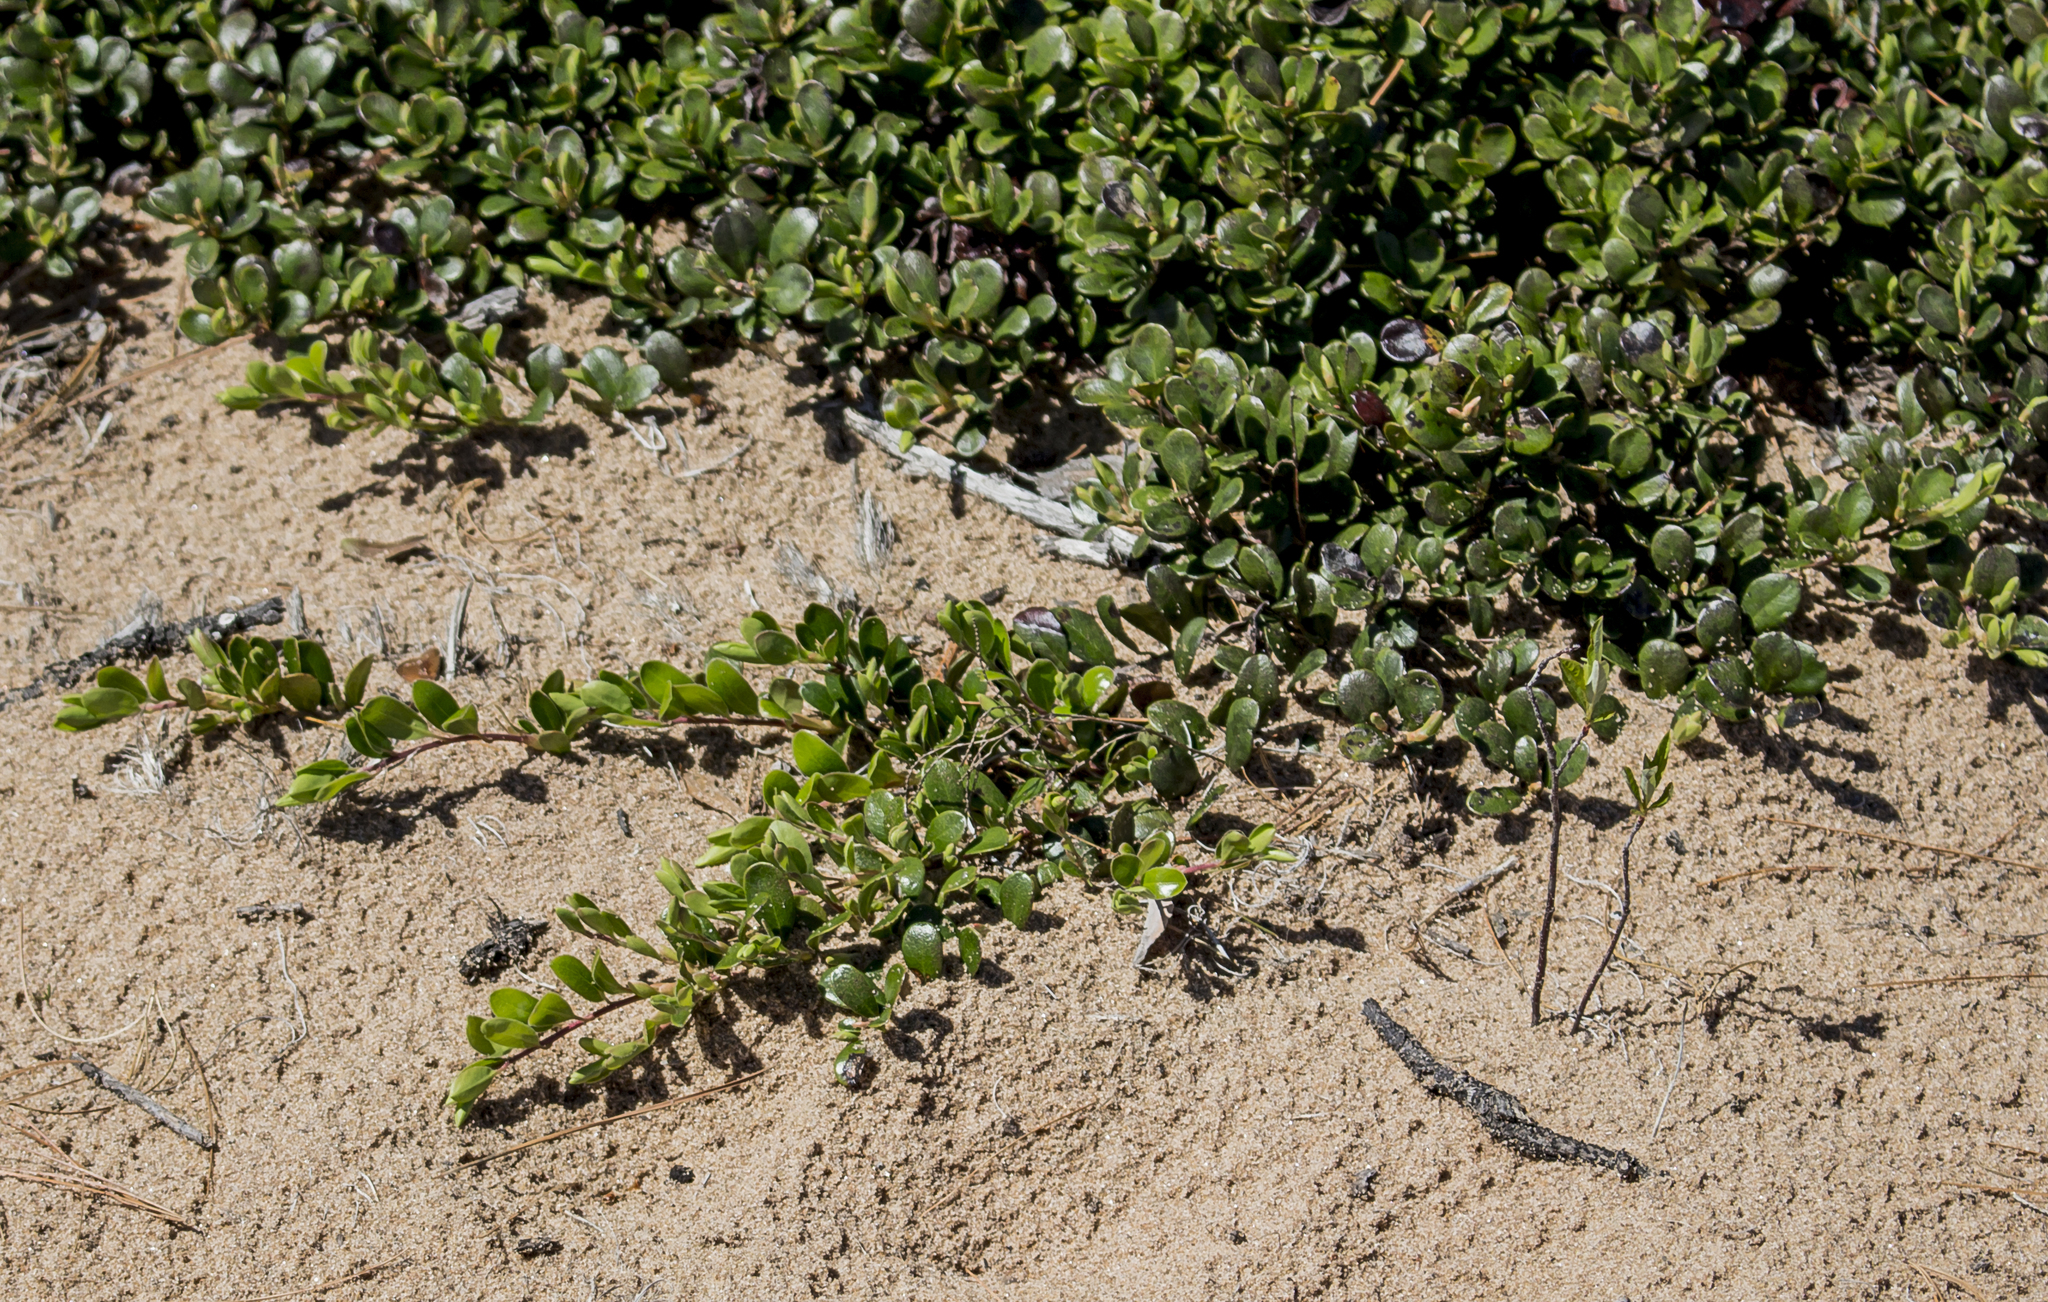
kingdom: Plantae
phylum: Tracheophyta
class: Magnoliopsida
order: Ericales
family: Ericaceae
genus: Arctostaphylos
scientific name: Arctostaphylos uva-ursi
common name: Bearberry
